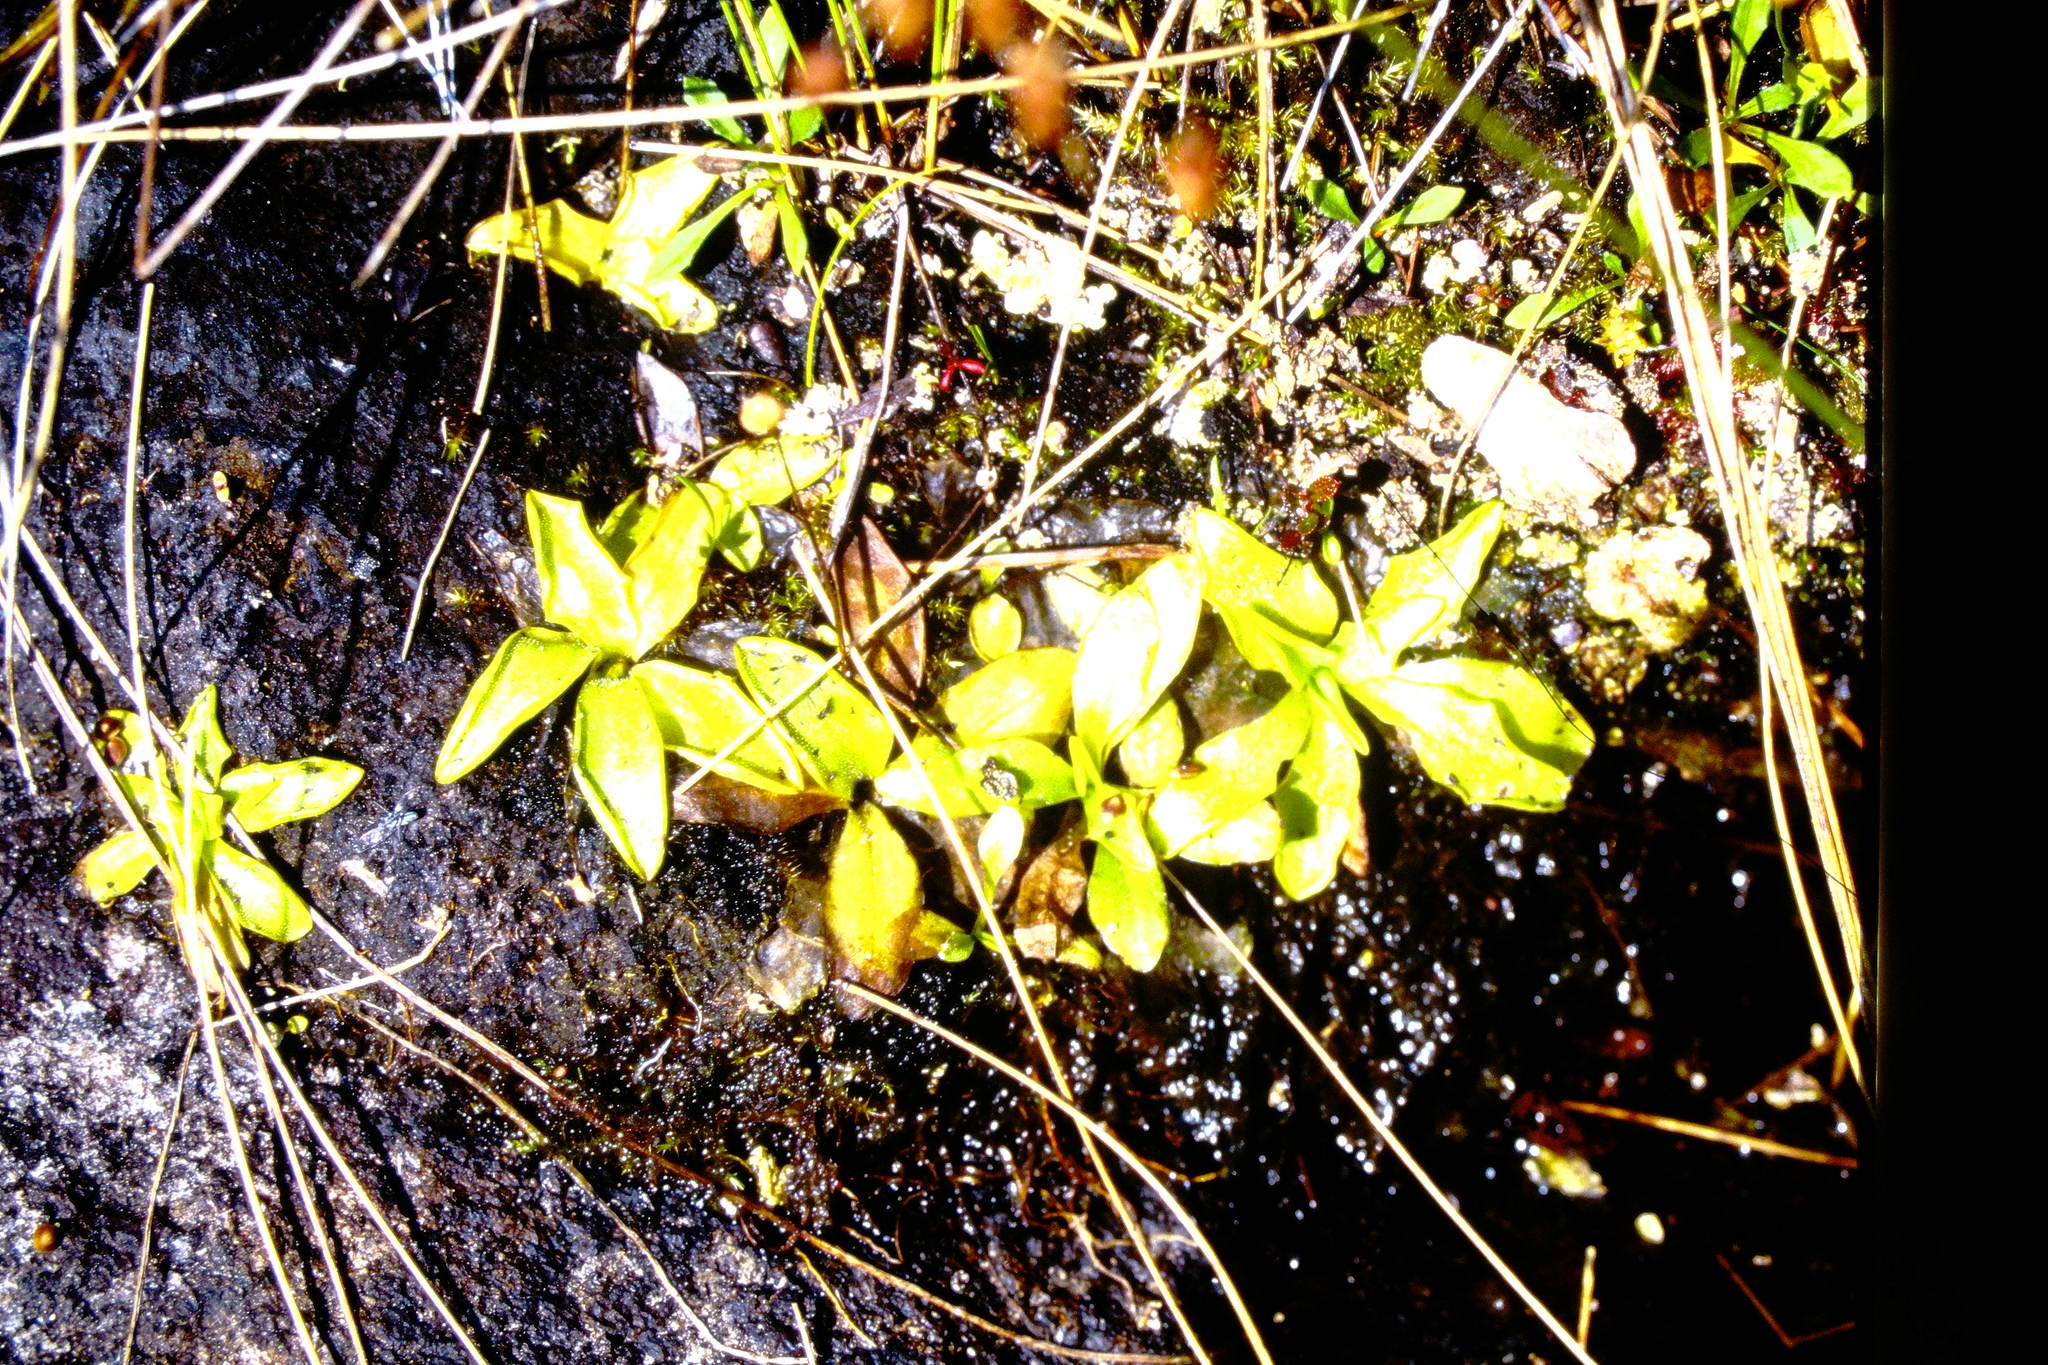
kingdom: Plantae
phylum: Tracheophyta
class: Magnoliopsida
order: Lamiales
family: Lentibulariaceae
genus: Pinguicula
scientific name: Pinguicula vulgaris
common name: Common butterwort
